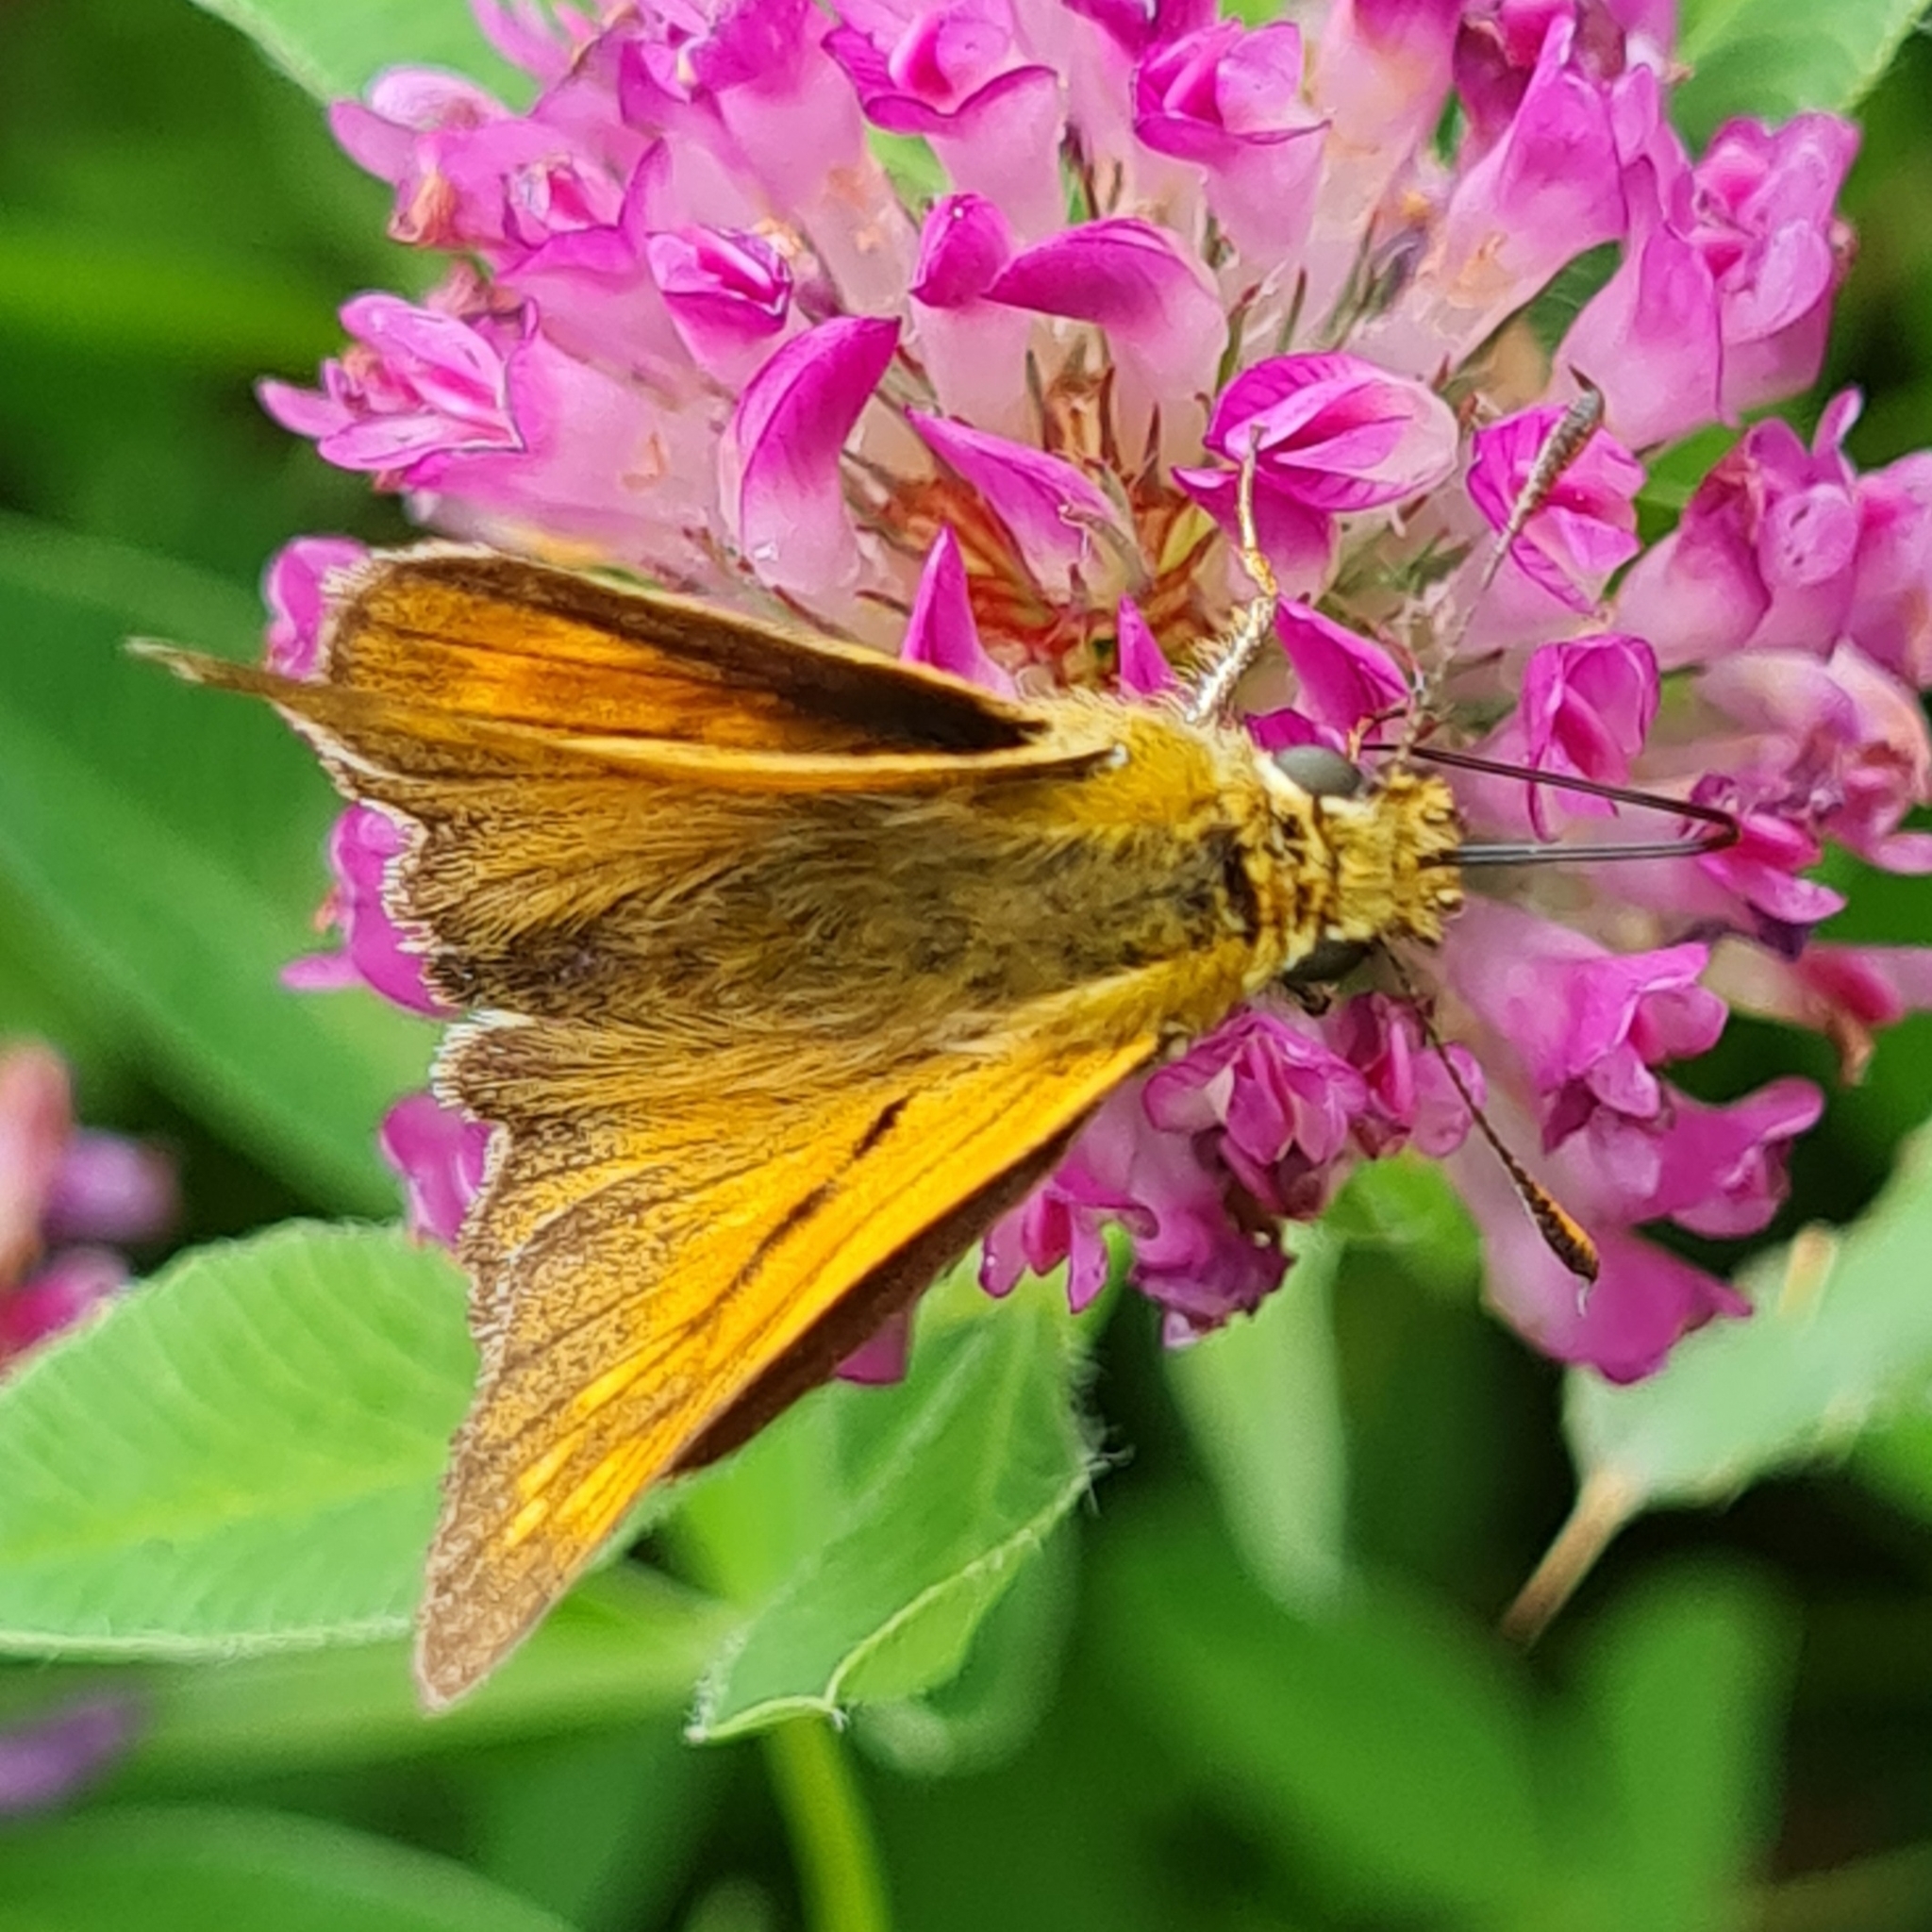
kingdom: Animalia
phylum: Arthropoda
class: Insecta
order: Lepidoptera
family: Hesperiidae
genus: Ochlodes
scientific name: Ochlodes venata
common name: Large skipper
